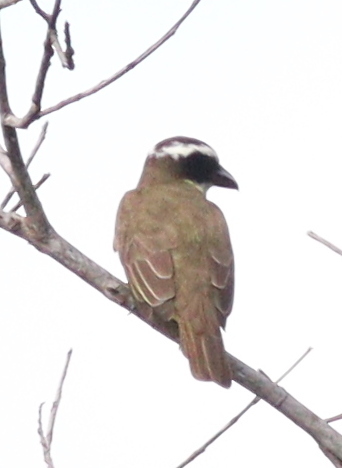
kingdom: Animalia
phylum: Chordata
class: Aves
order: Passeriformes
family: Tyrannidae
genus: Megarynchus
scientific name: Megarynchus pitangua
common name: Boat-billed flycatcher
